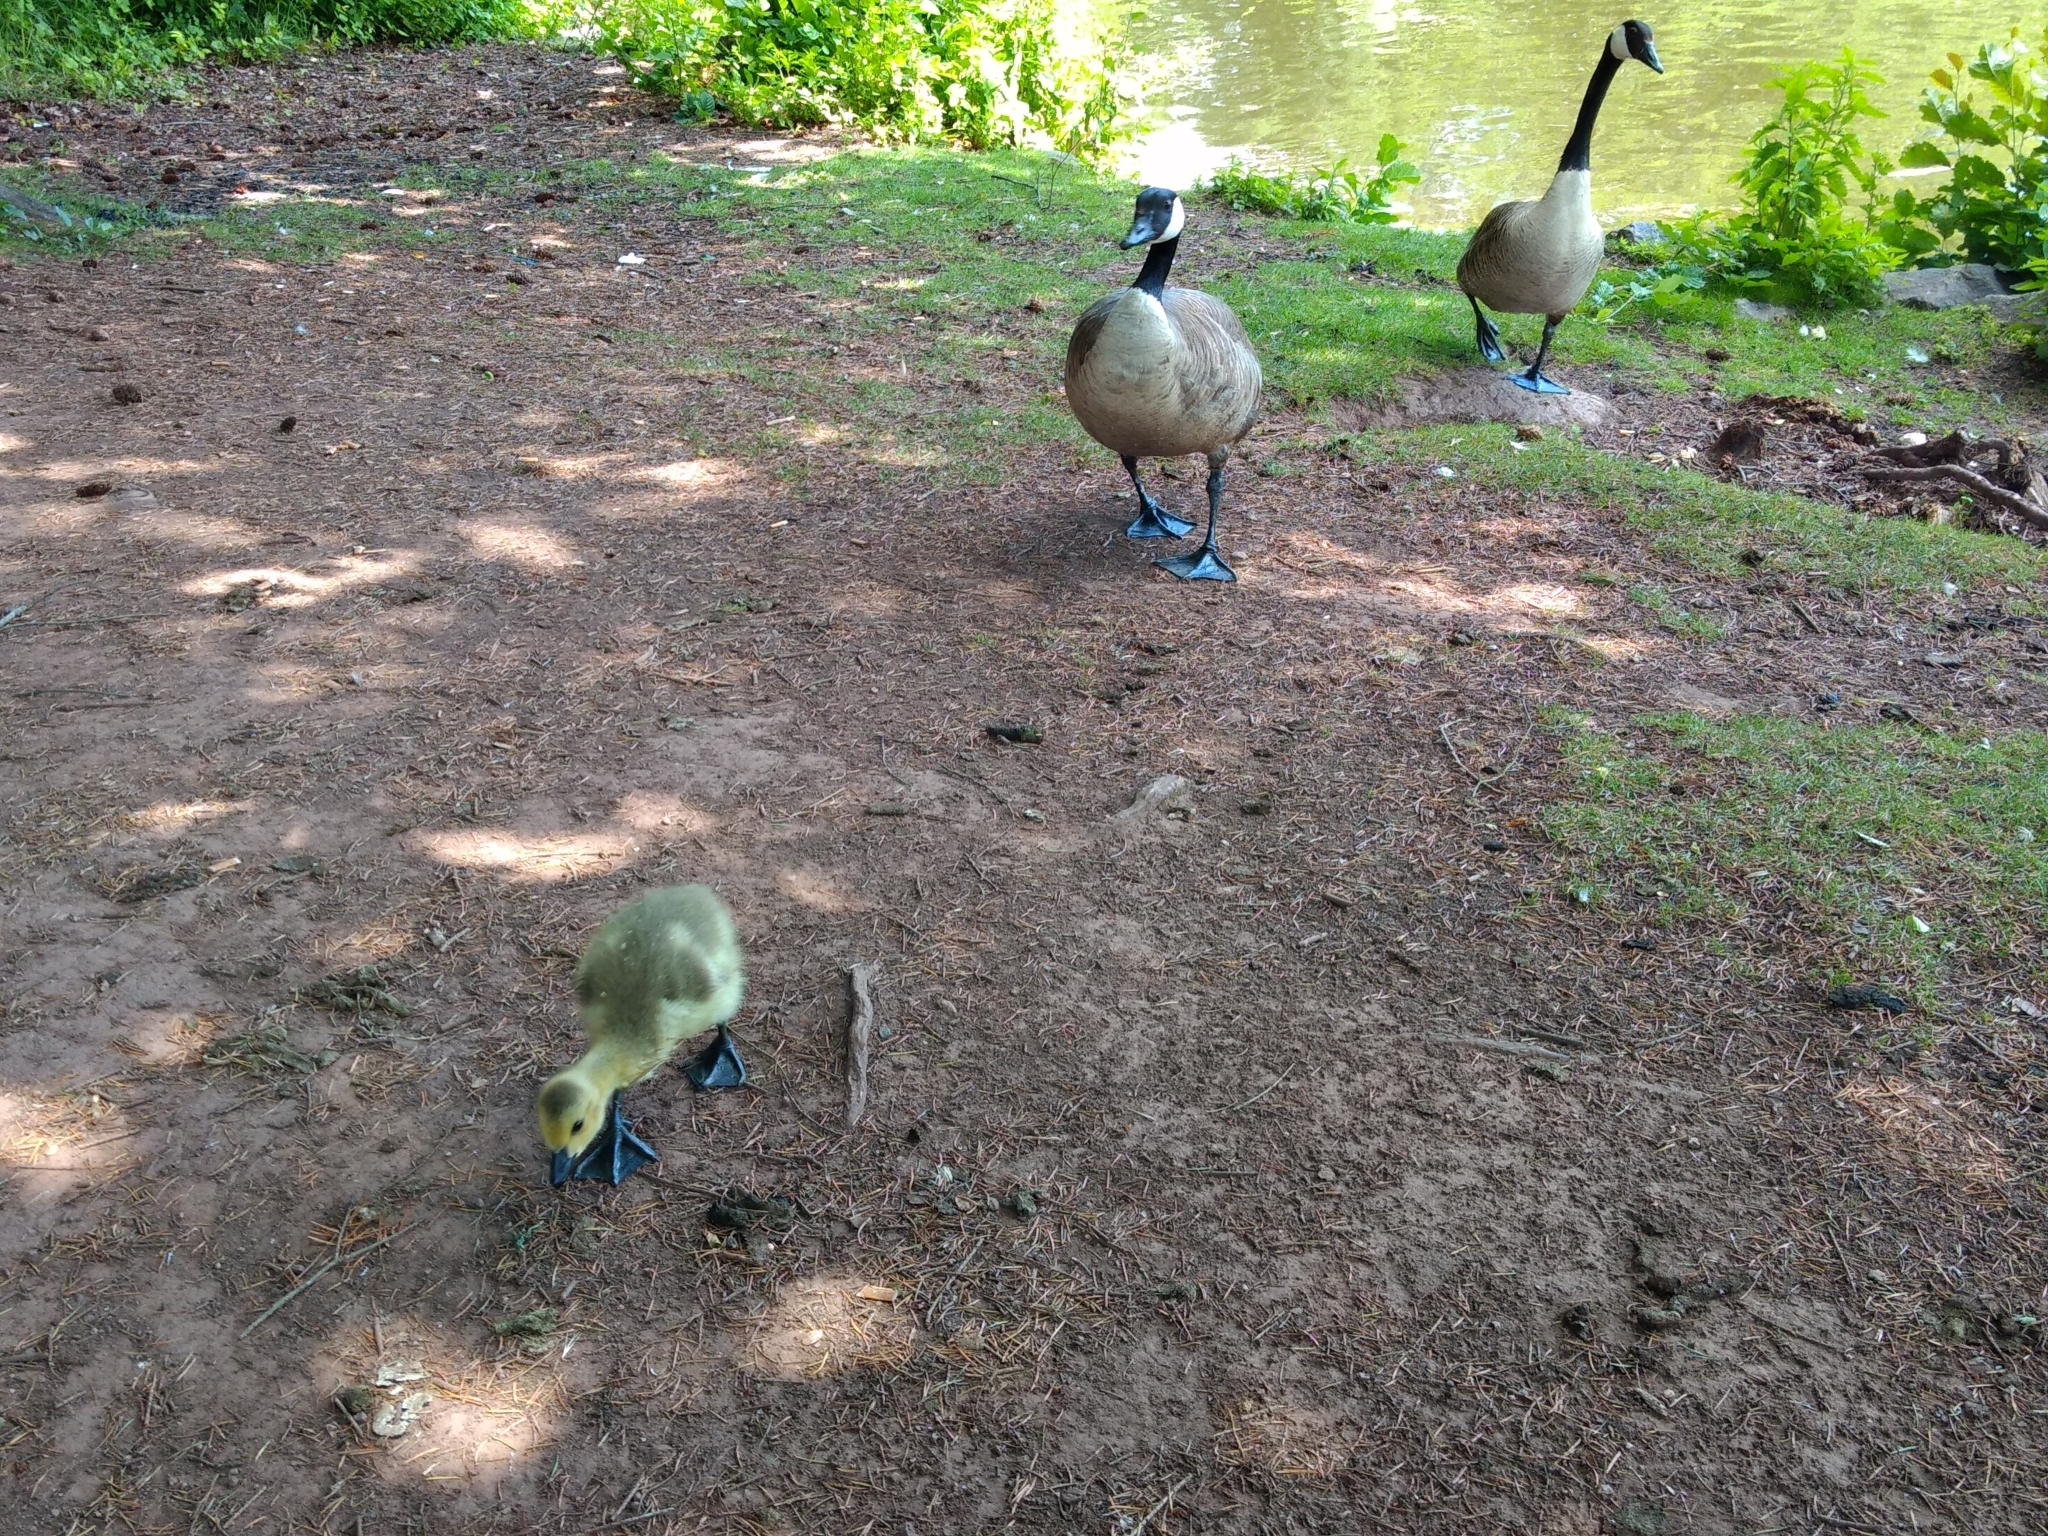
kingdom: Animalia
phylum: Chordata
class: Aves
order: Anseriformes
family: Anatidae
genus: Branta
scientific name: Branta canadensis
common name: Canada goose
